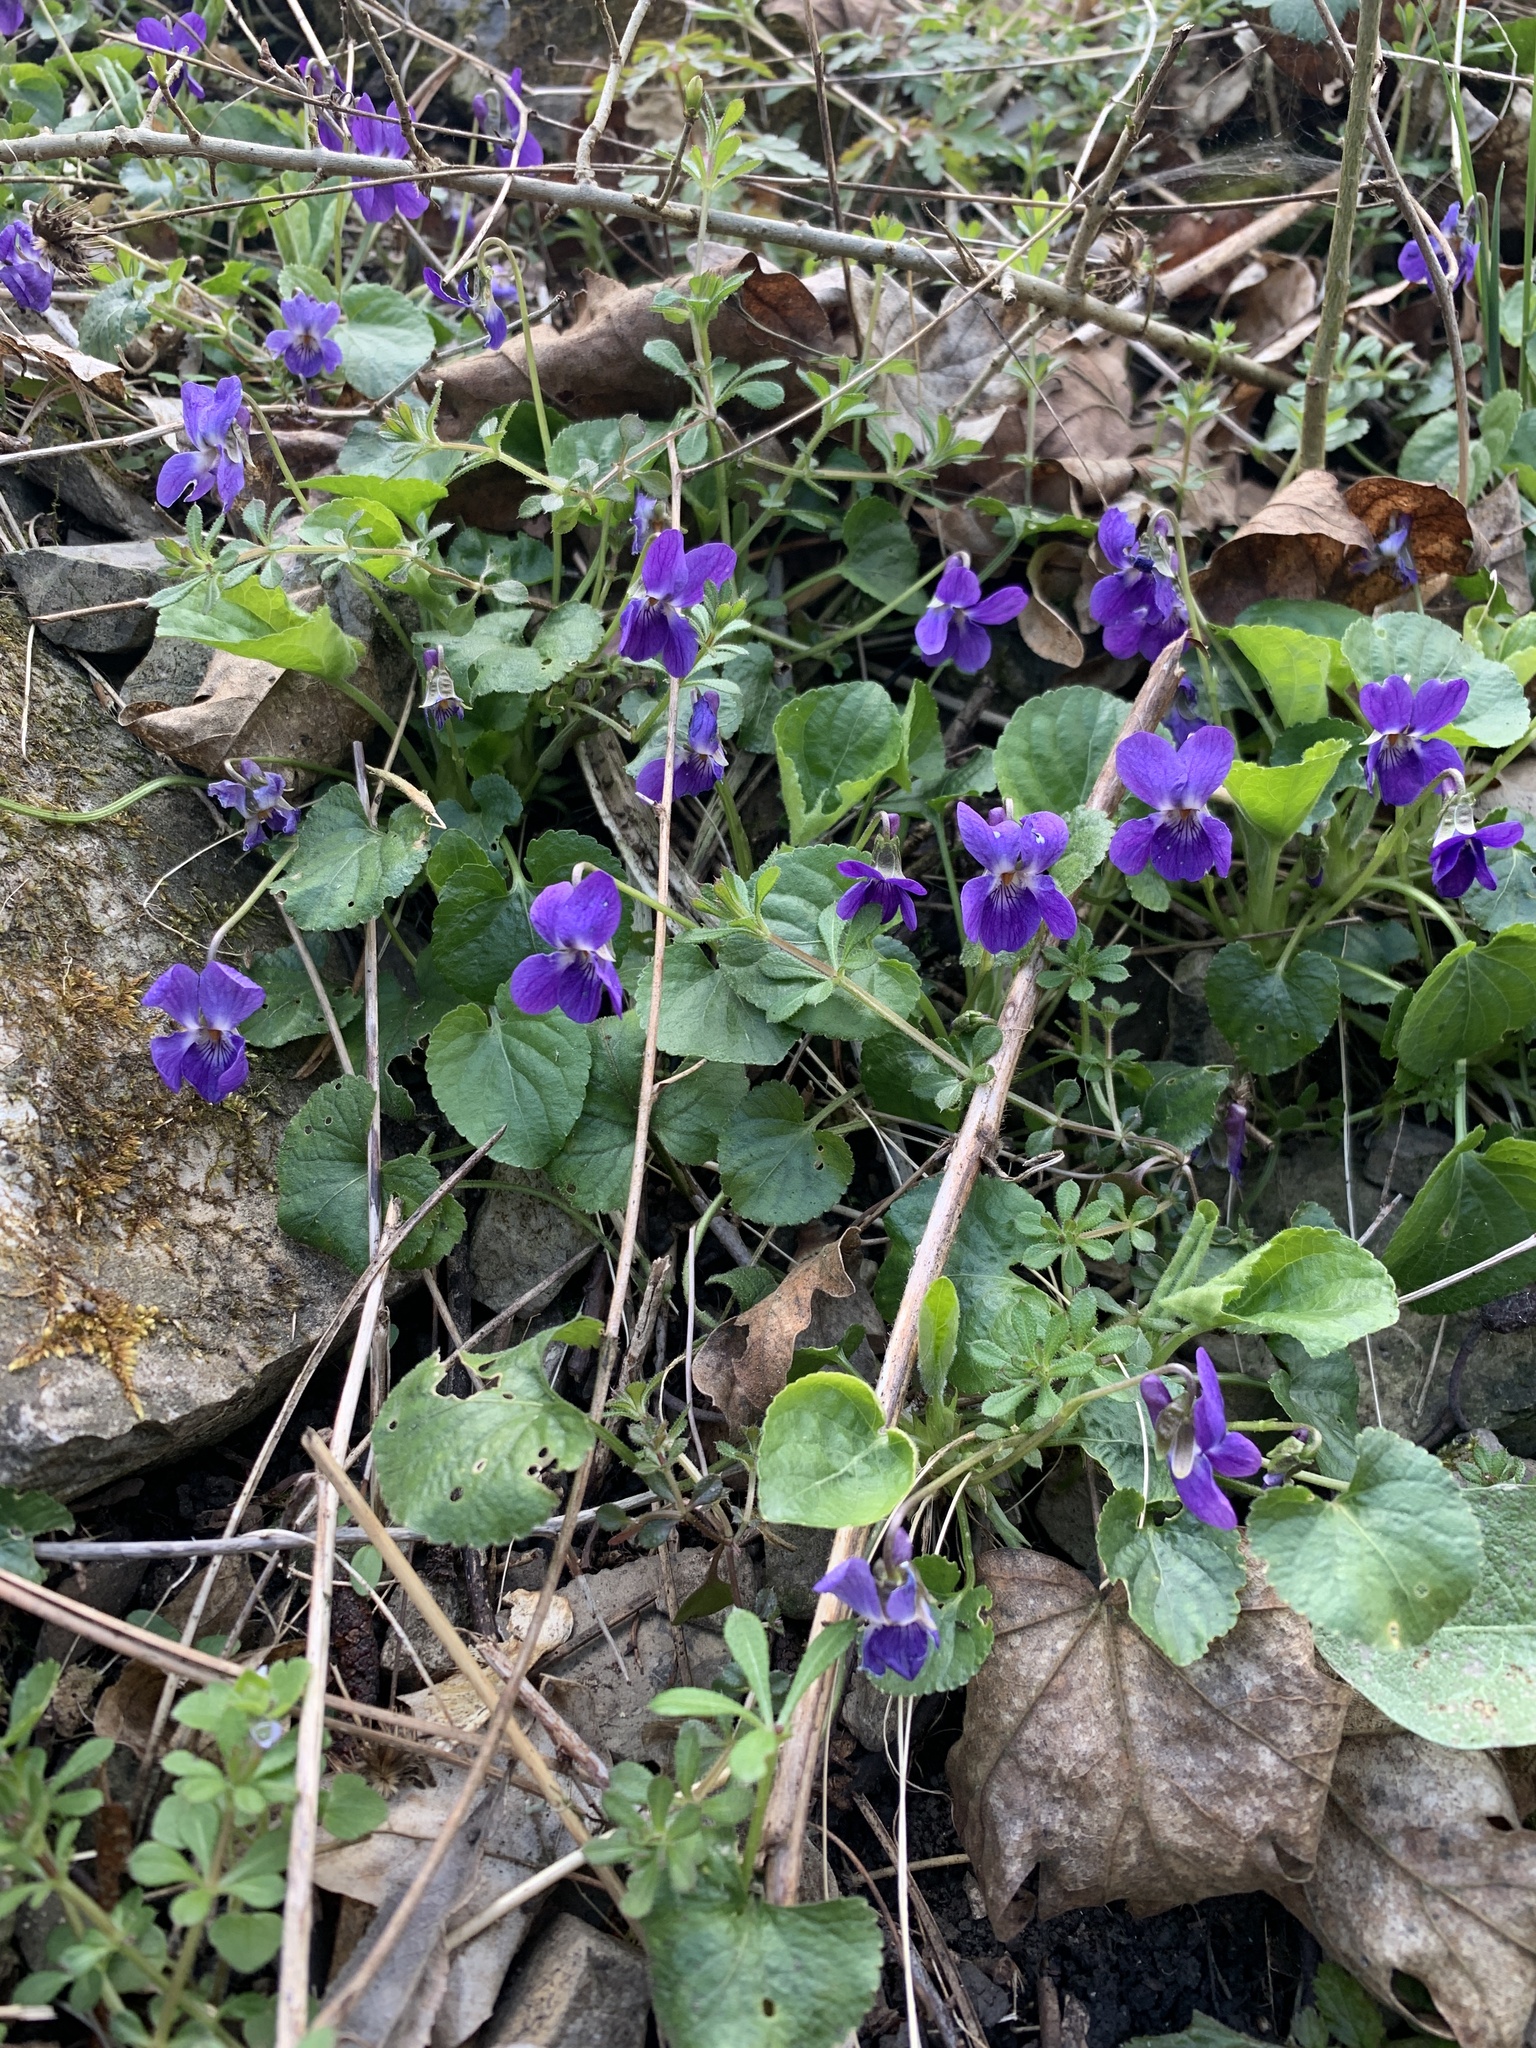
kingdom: Plantae
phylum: Tracheophyta
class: Magnoliopsida
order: Malpighiales
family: Violaceae
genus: Viola
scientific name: Viola odorata
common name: Sweet violet
